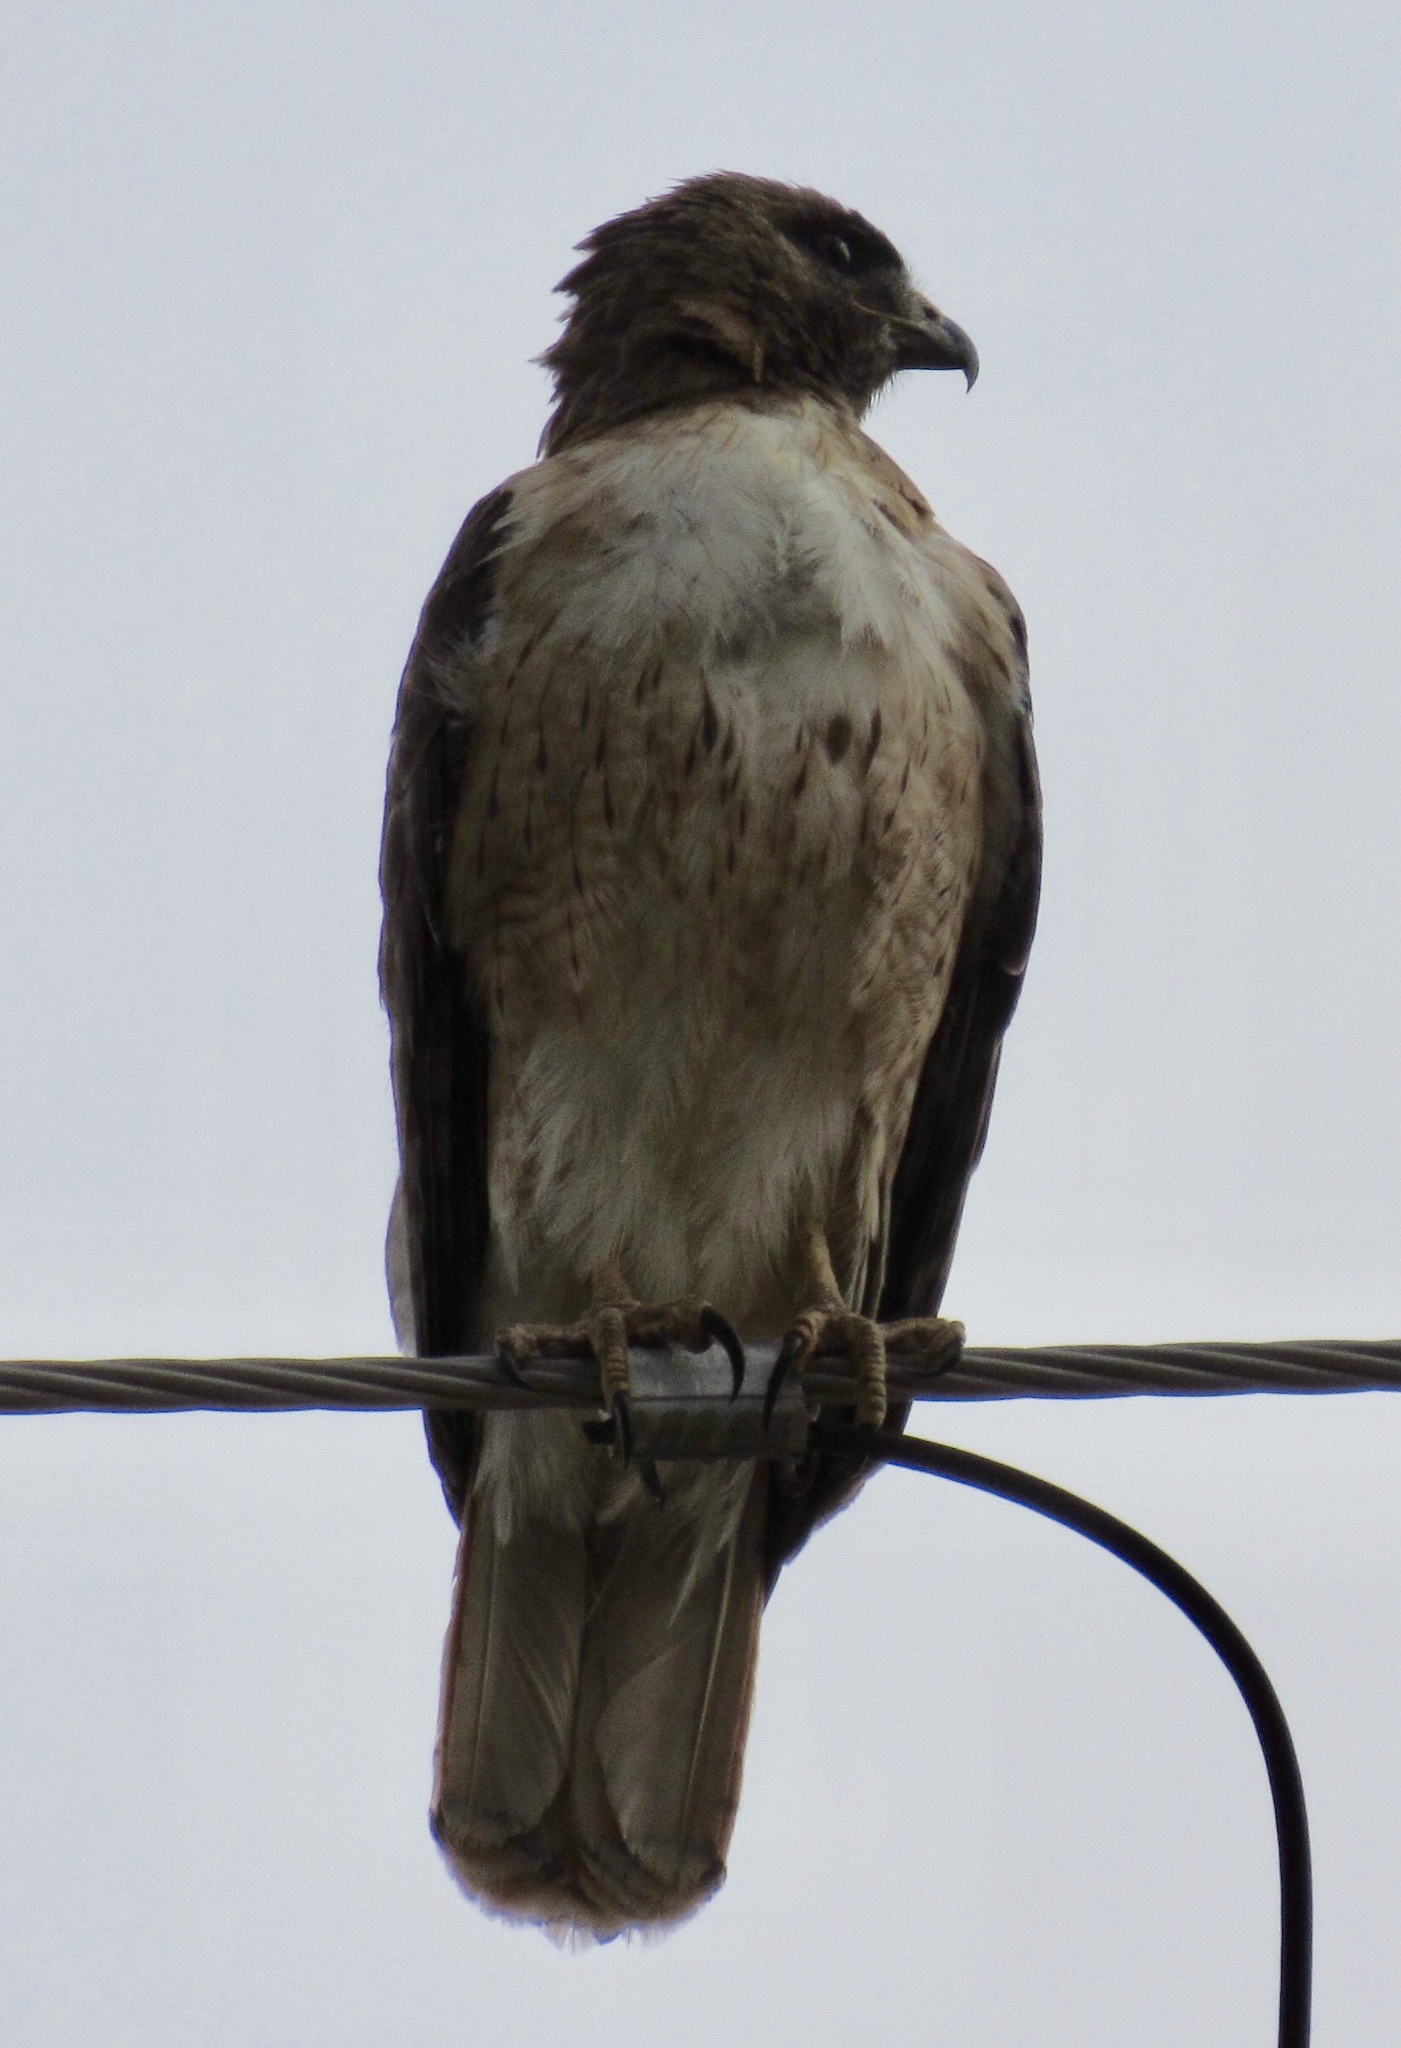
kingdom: Animalia
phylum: Chordata
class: Aves
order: Accipitriformes
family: Accipitridae
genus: Buteo
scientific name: Buteo jamaicensis
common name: Red-tailed hawk
